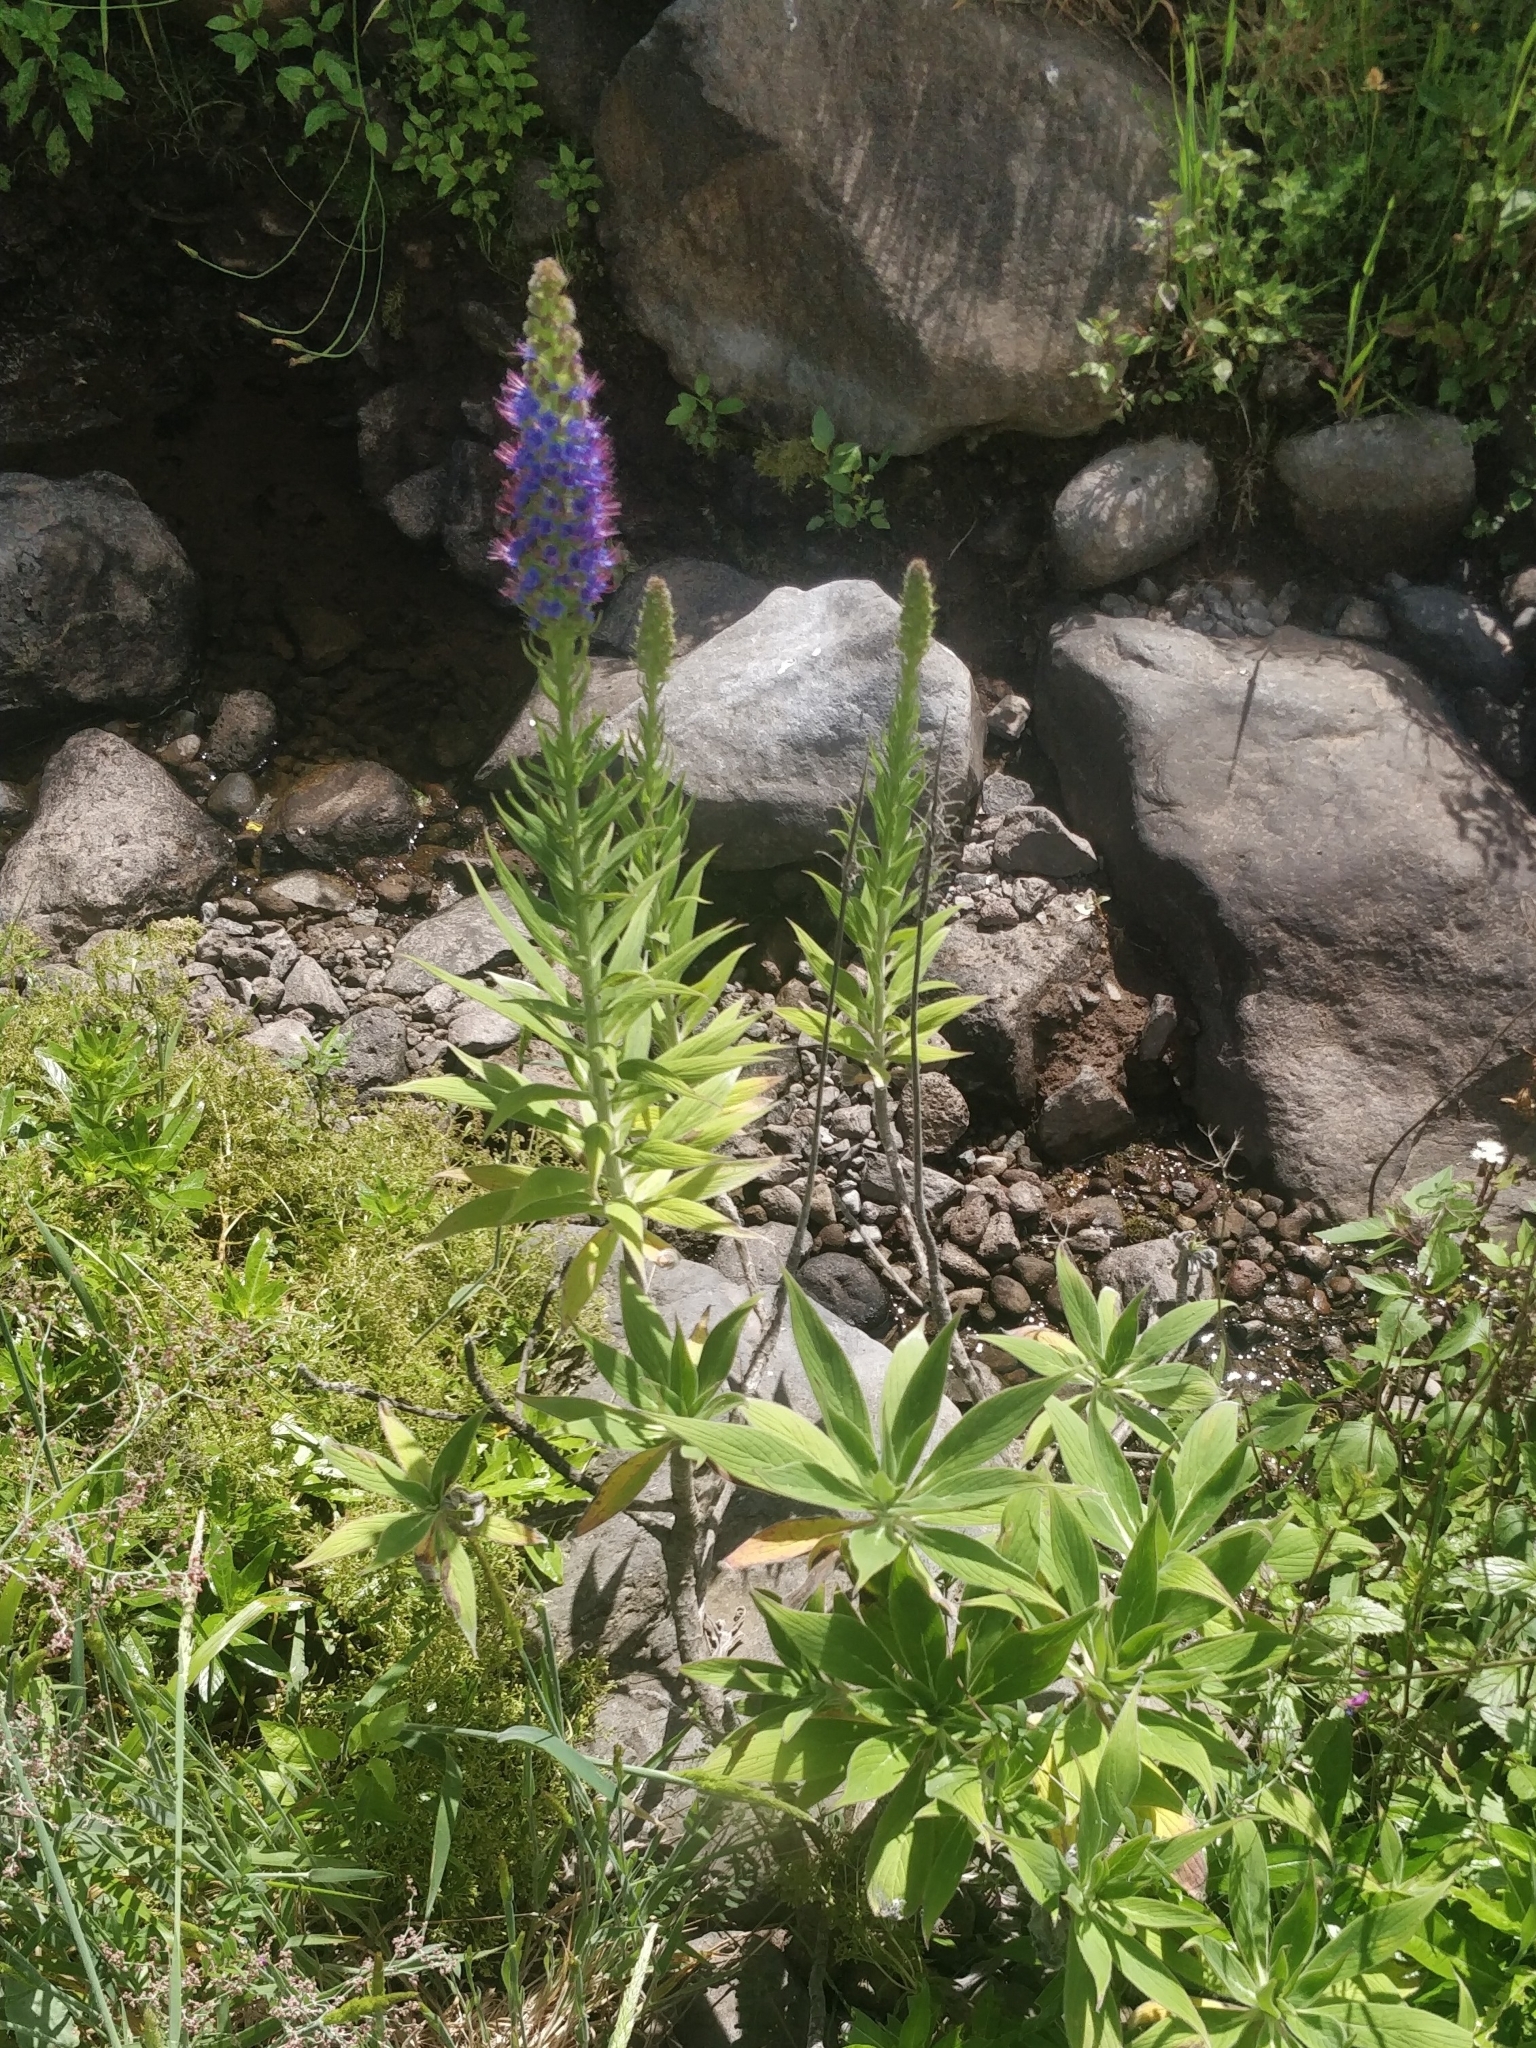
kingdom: Plantae
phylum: Tracheophyta
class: Magnoliopsida
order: Boraginales
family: Boraginaceae
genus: Echium
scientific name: Echium candicans
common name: Pride of madeira
